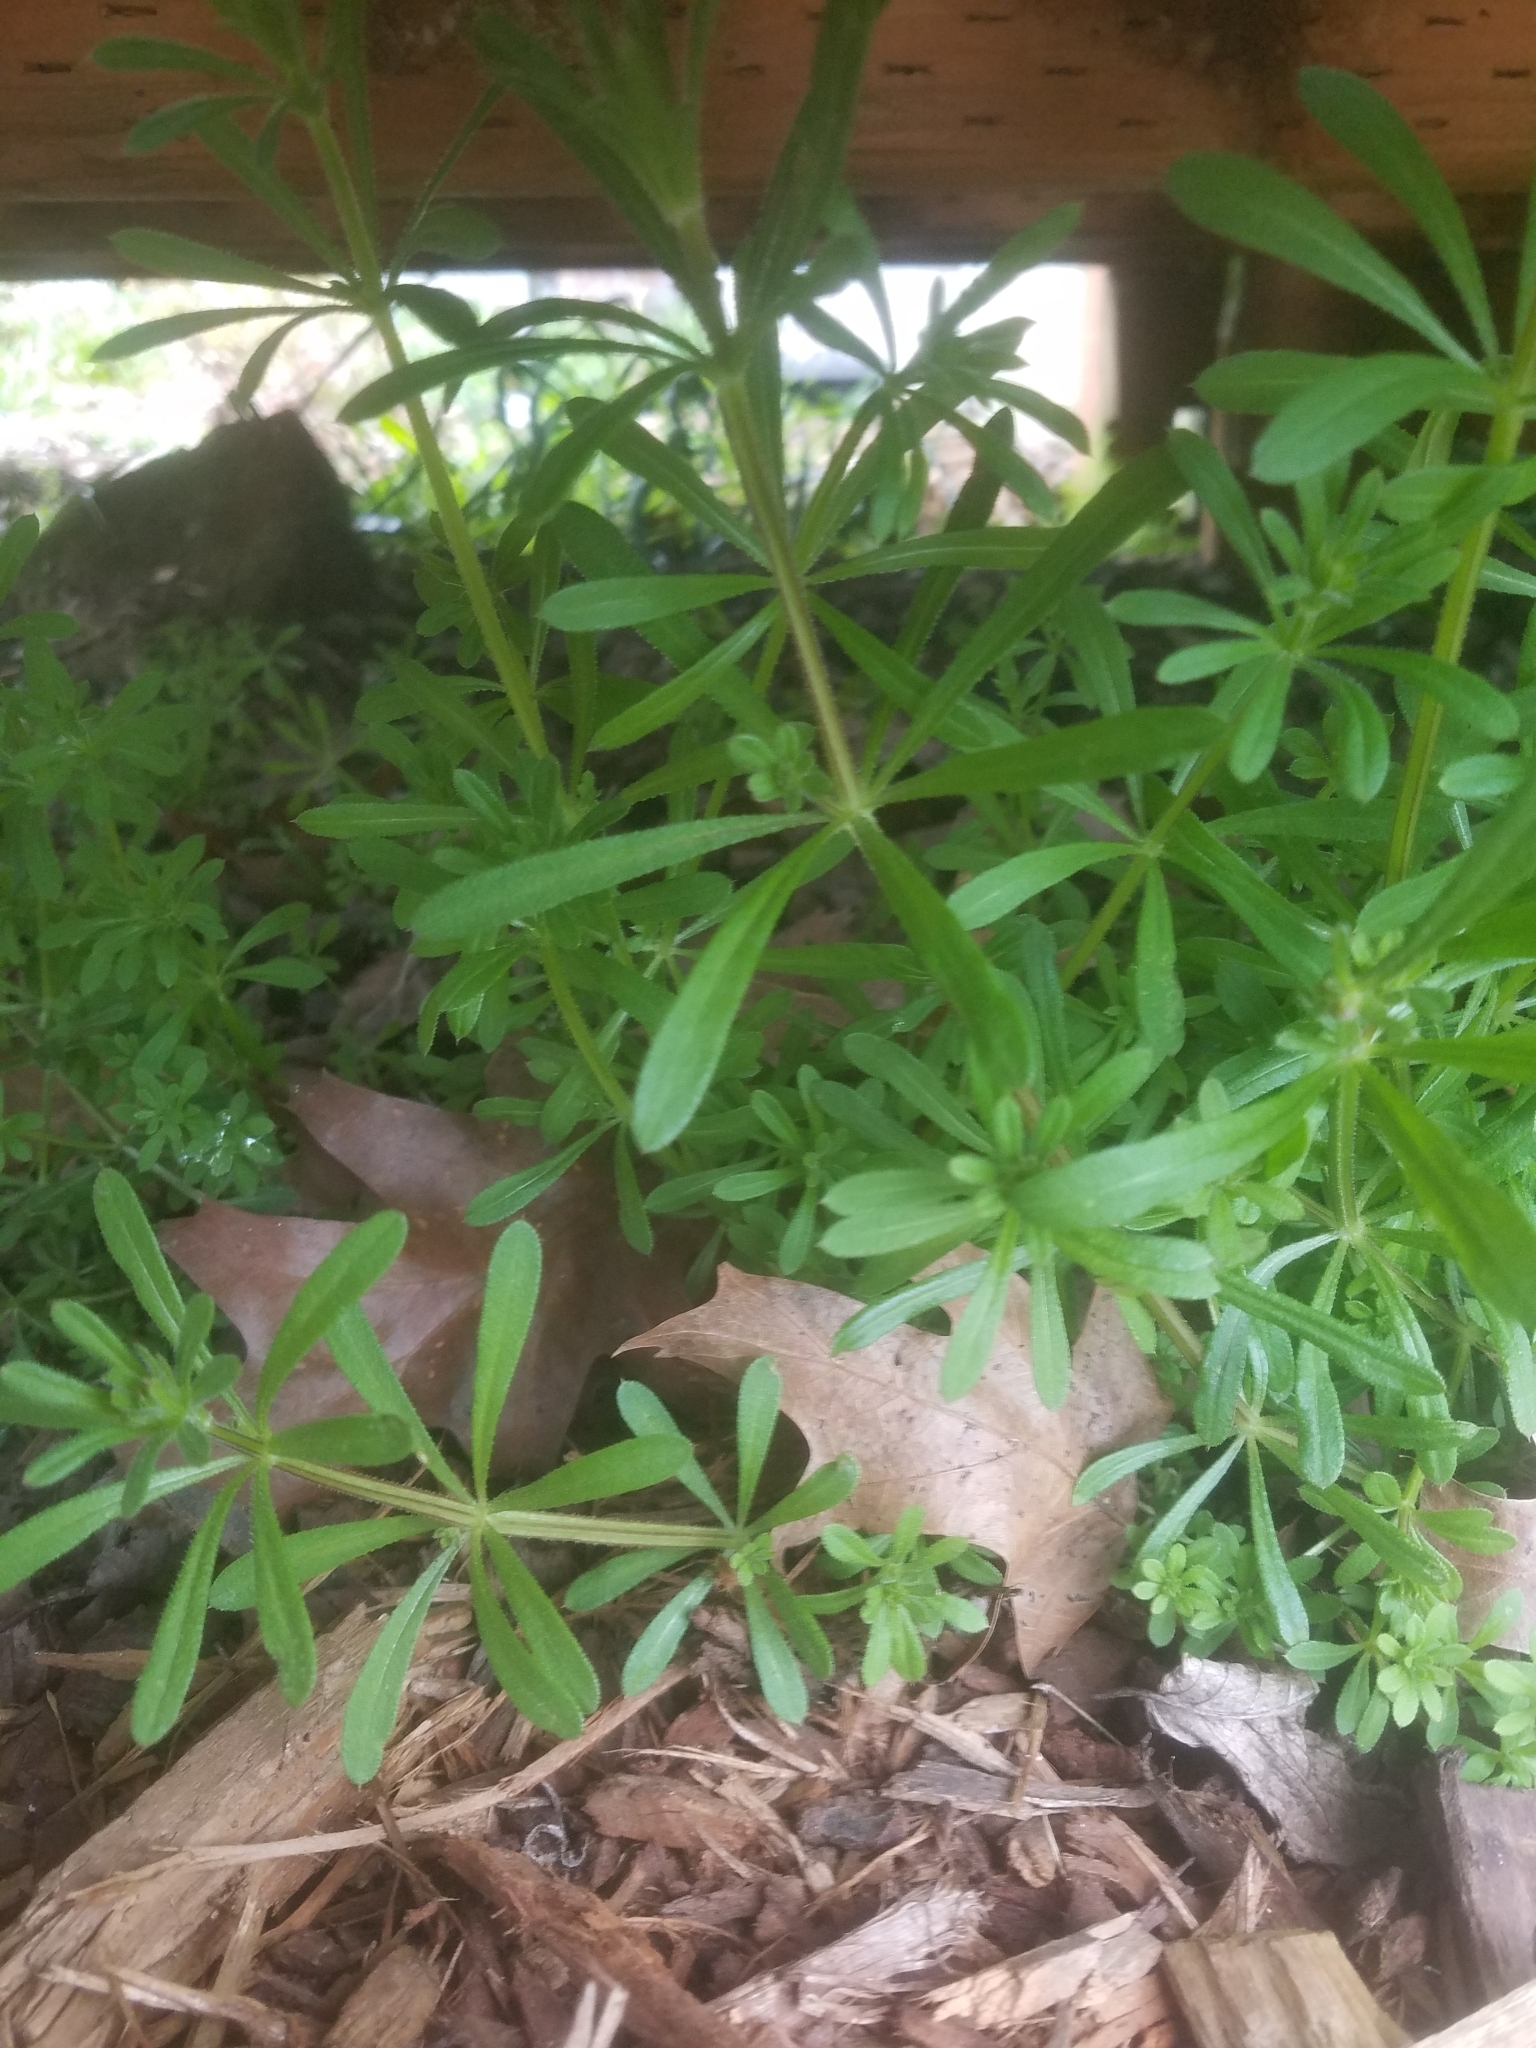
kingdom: Plantae
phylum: Tracheophyta
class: Magnoliopsida
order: Gentianales
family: Rubiaceae
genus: Galium
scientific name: Galium aparine
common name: Cleavers
